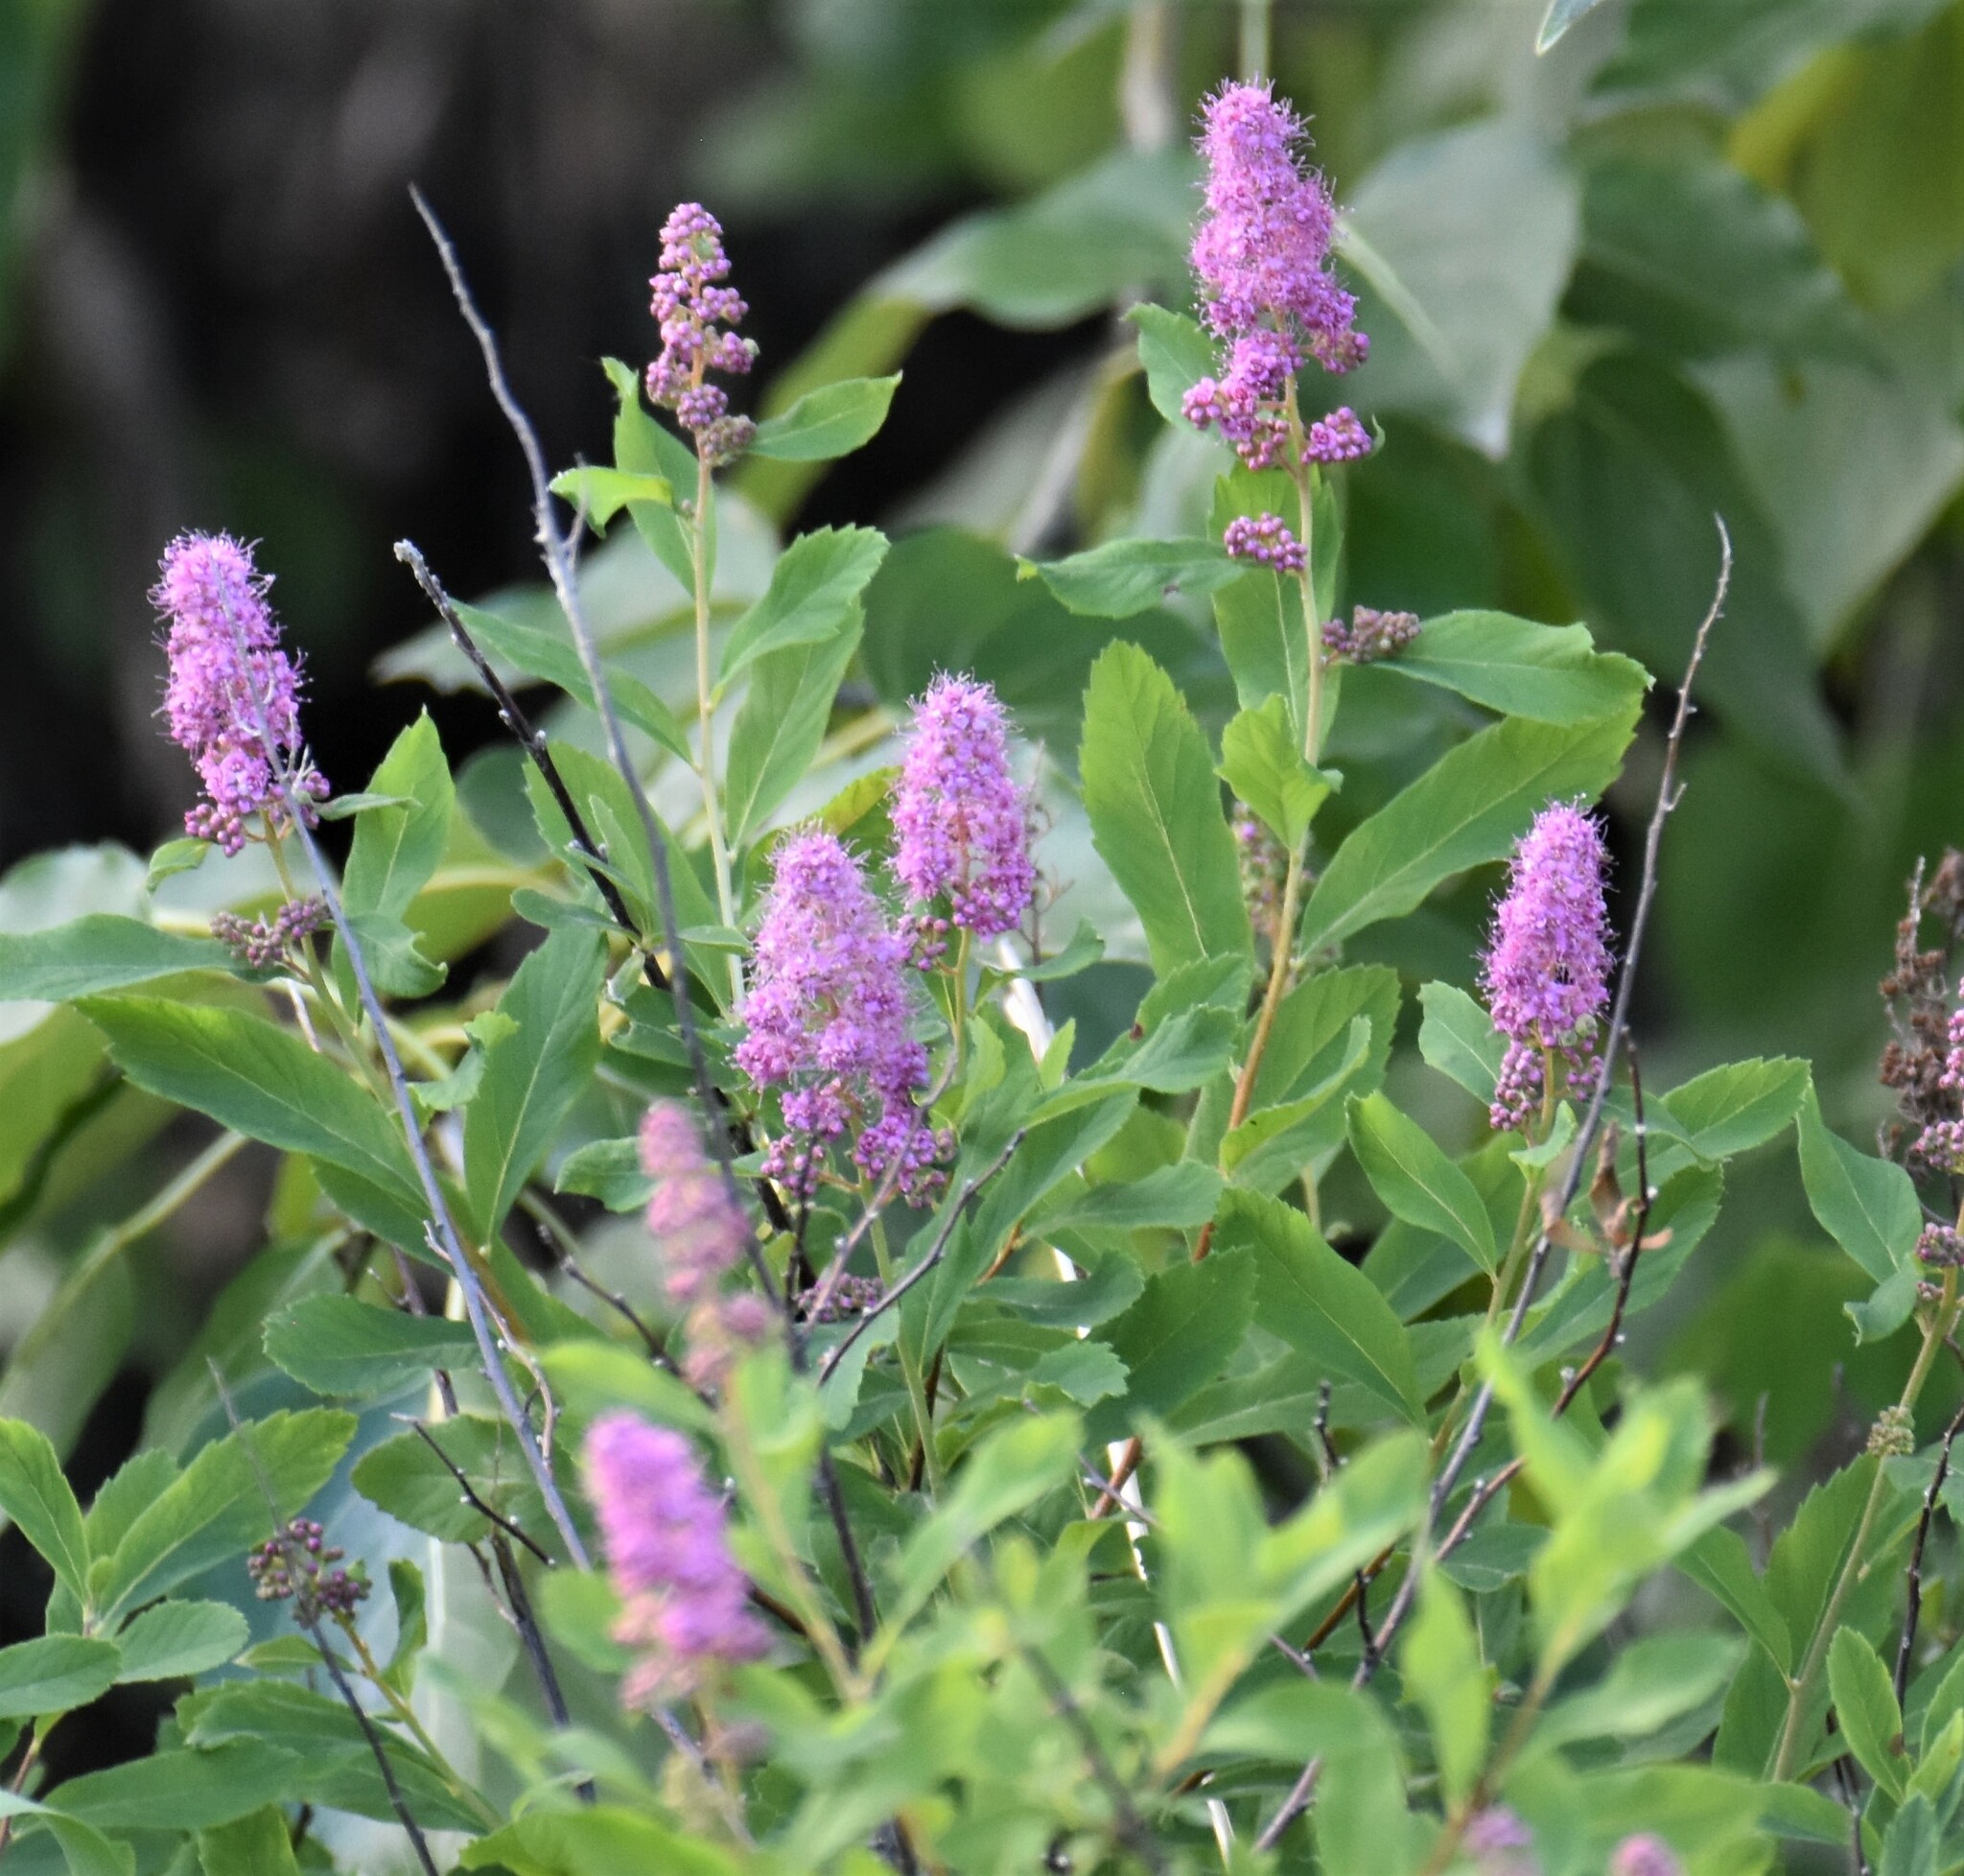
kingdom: Plantae
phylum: Tracheophyta
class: Magnoliopsida
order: Rosales
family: Rosaceae
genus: Spiraea
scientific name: Spiraea douglasii
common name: Steeplebush
